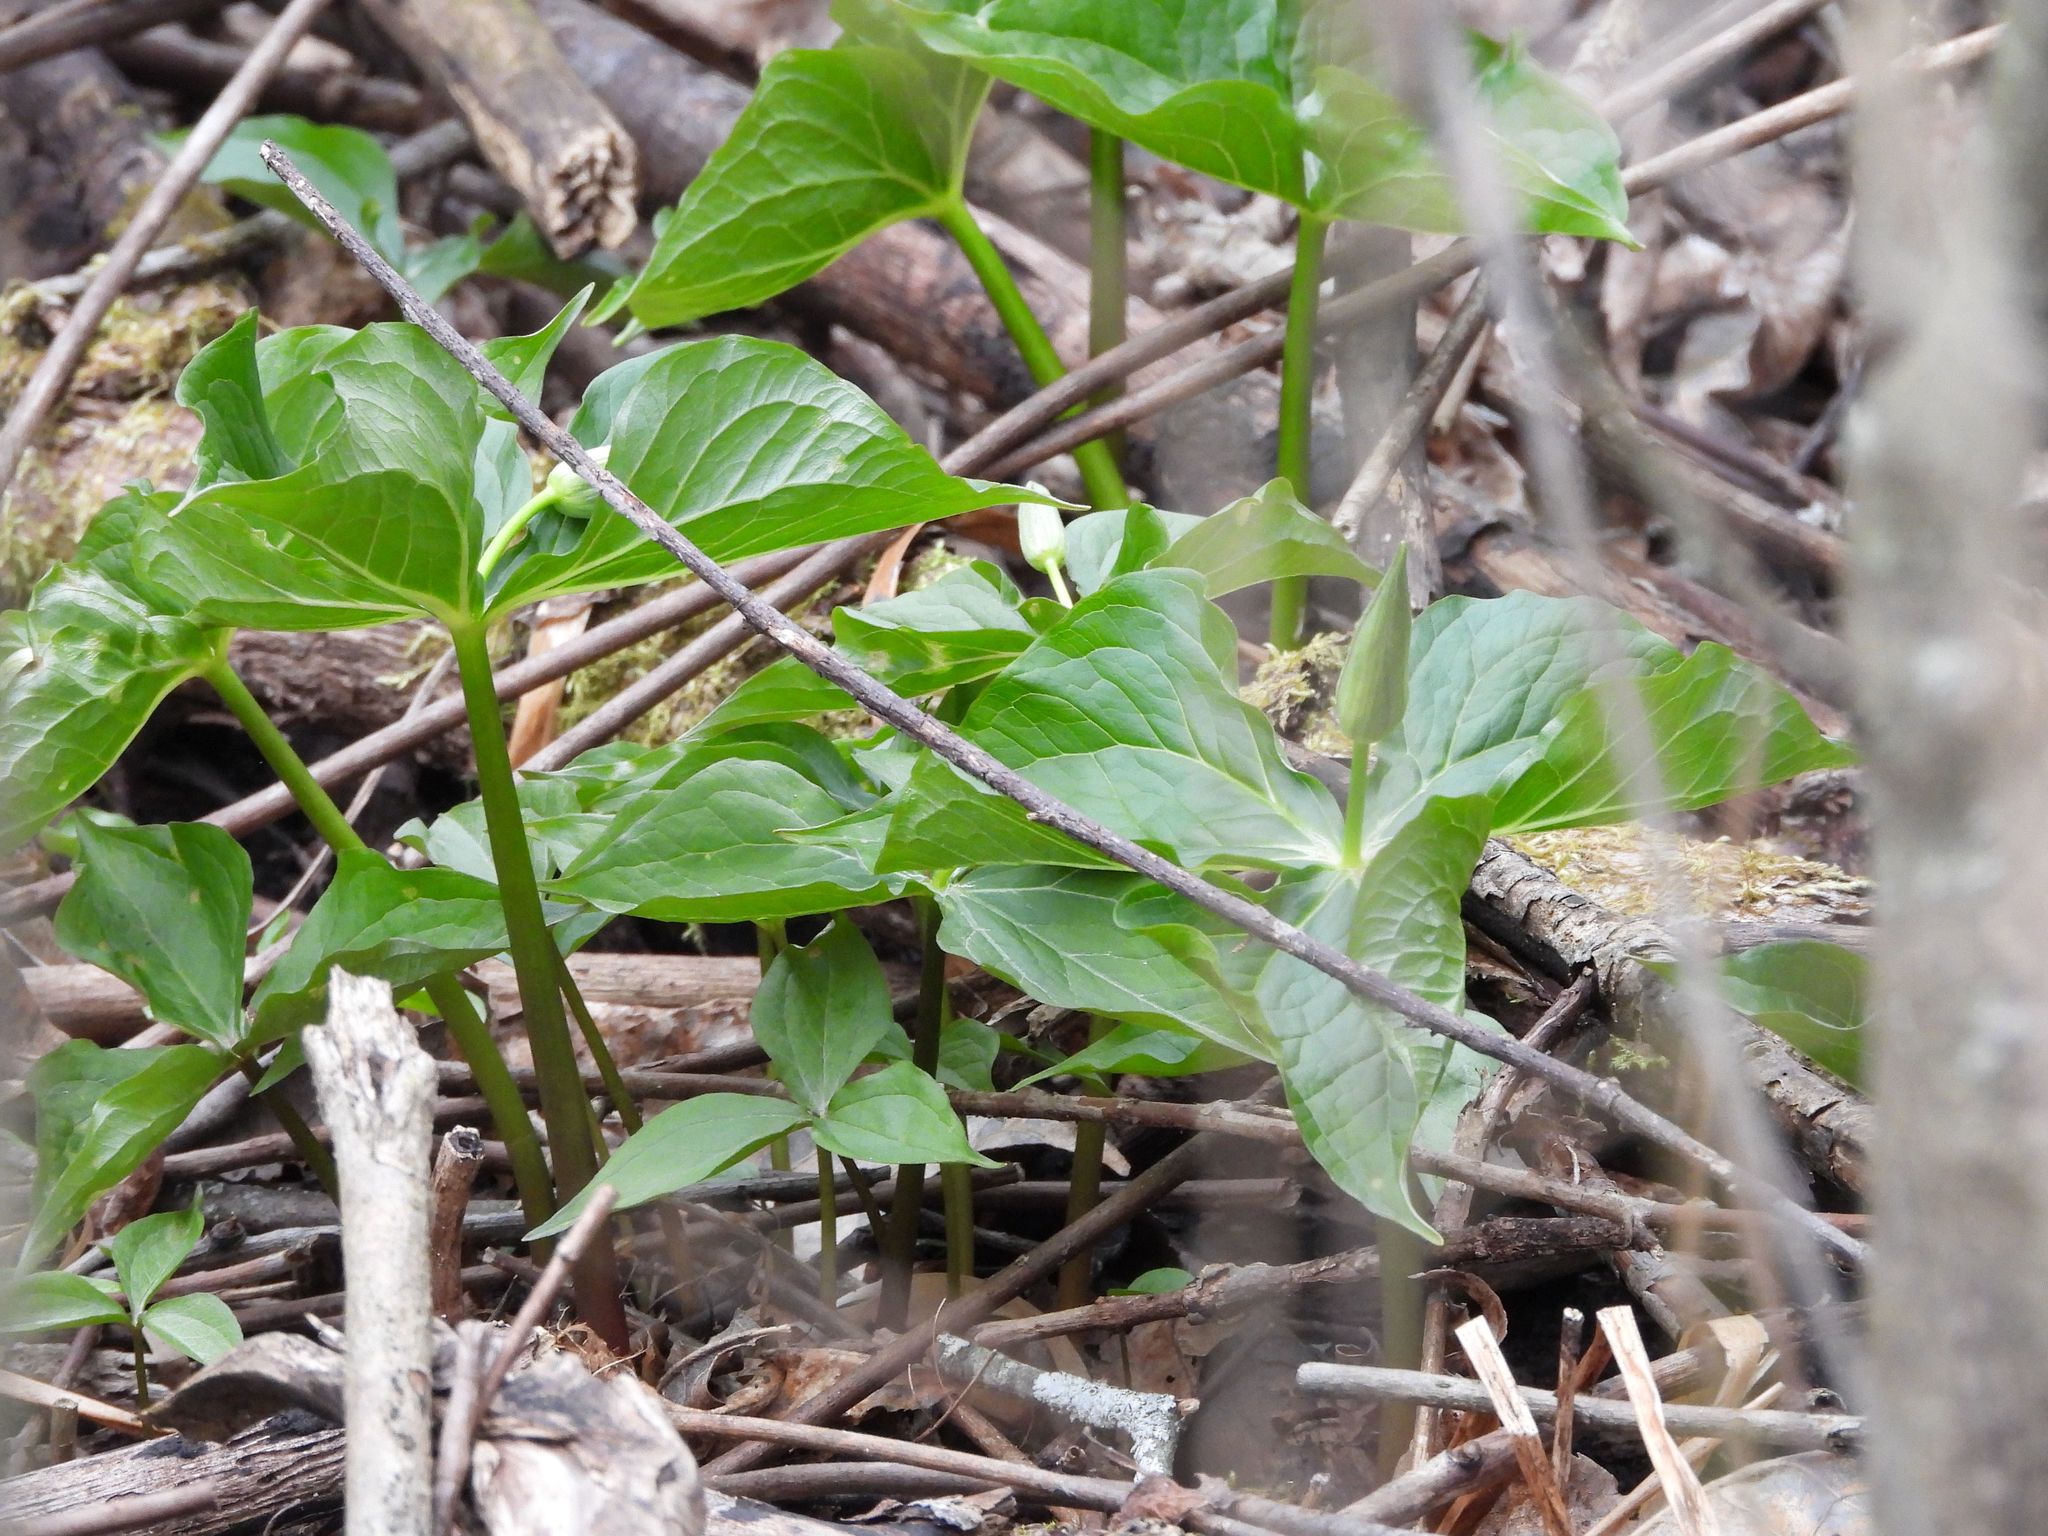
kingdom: Plantae
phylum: Tracheophyta
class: Liliopsida
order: Liliales
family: Melanthiaceae
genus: Trillium
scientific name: Trillium grandiflorum
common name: Great white trillium
